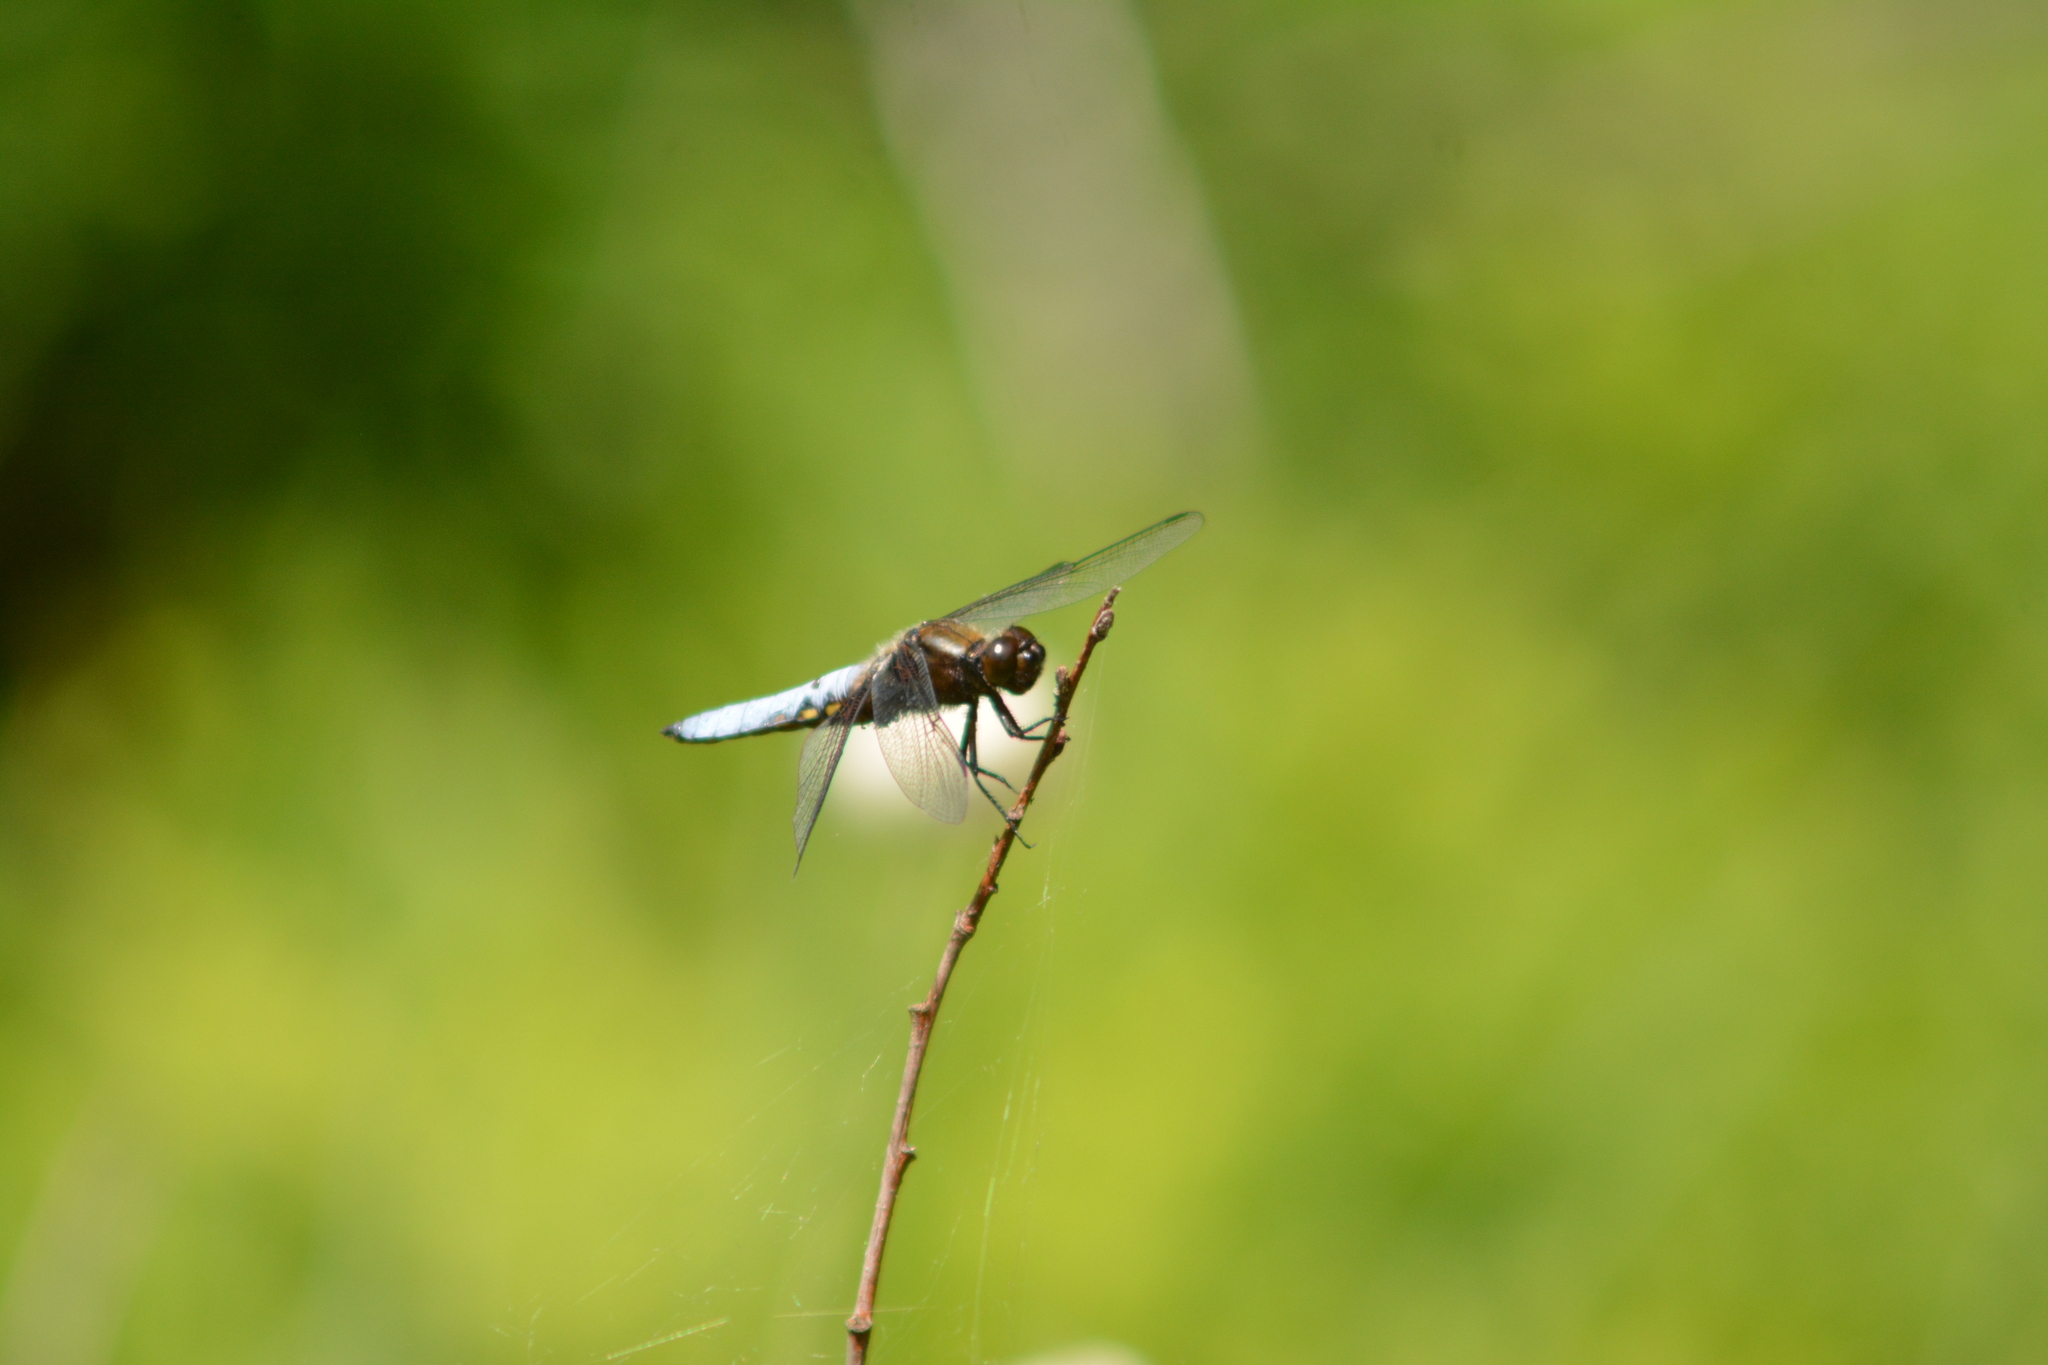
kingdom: Animalia
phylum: Arthropoda
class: Insecta
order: Odonata
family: Libellulidae
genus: Libellula
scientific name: Libellula depressa
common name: Broad-bodied chaser
